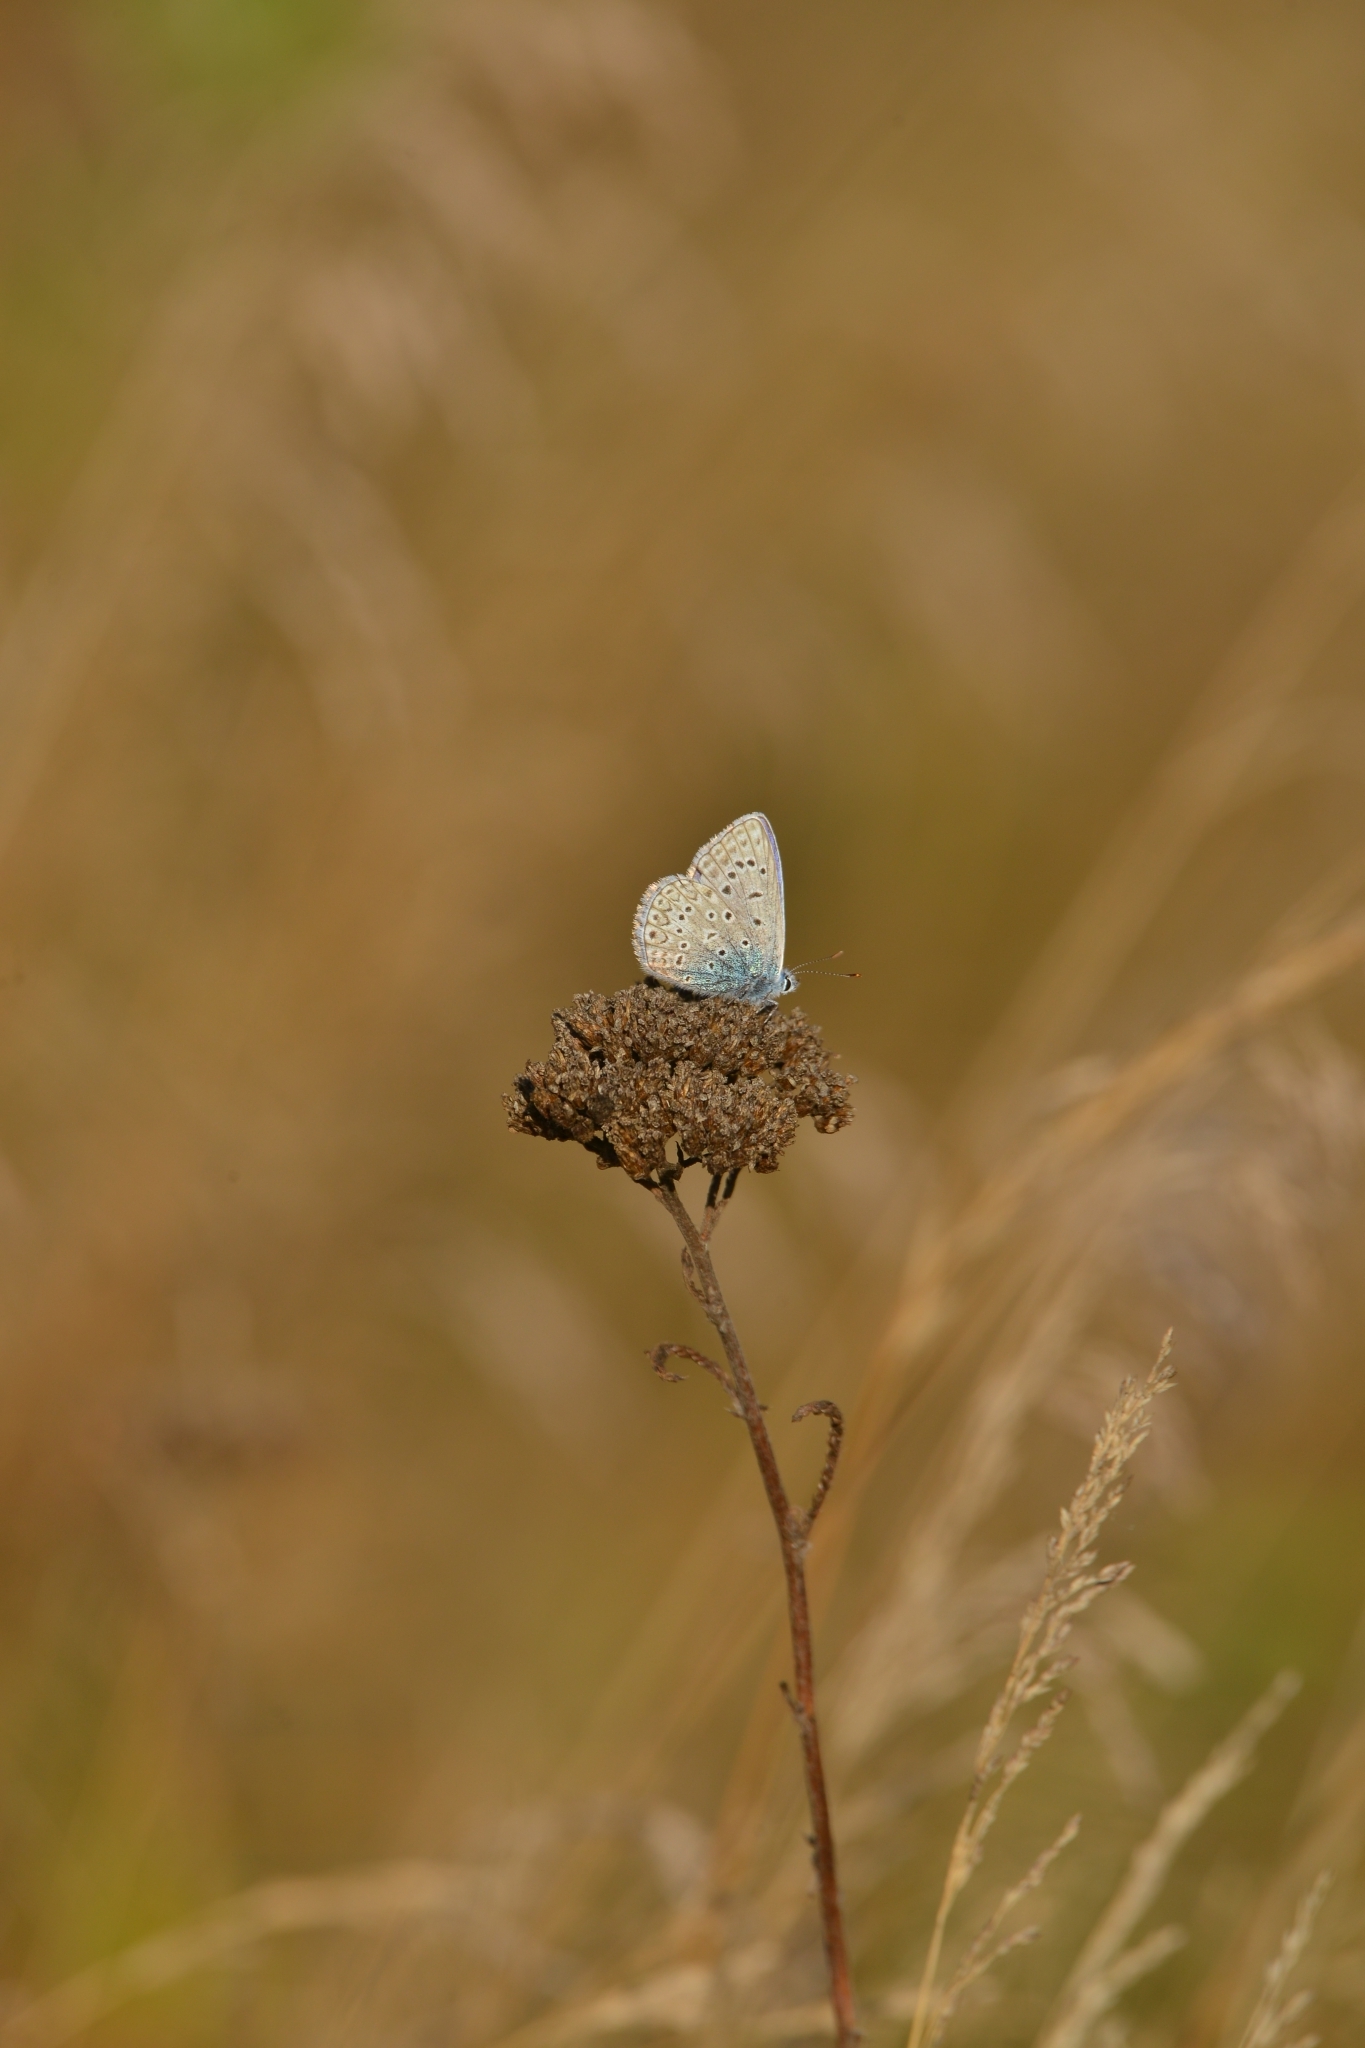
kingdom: Animalia
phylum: Arthropoda
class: Insecta
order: Lepidoptera
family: Lycaenidae
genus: Polyommatus
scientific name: Polyommatus icarus
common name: Common blue
